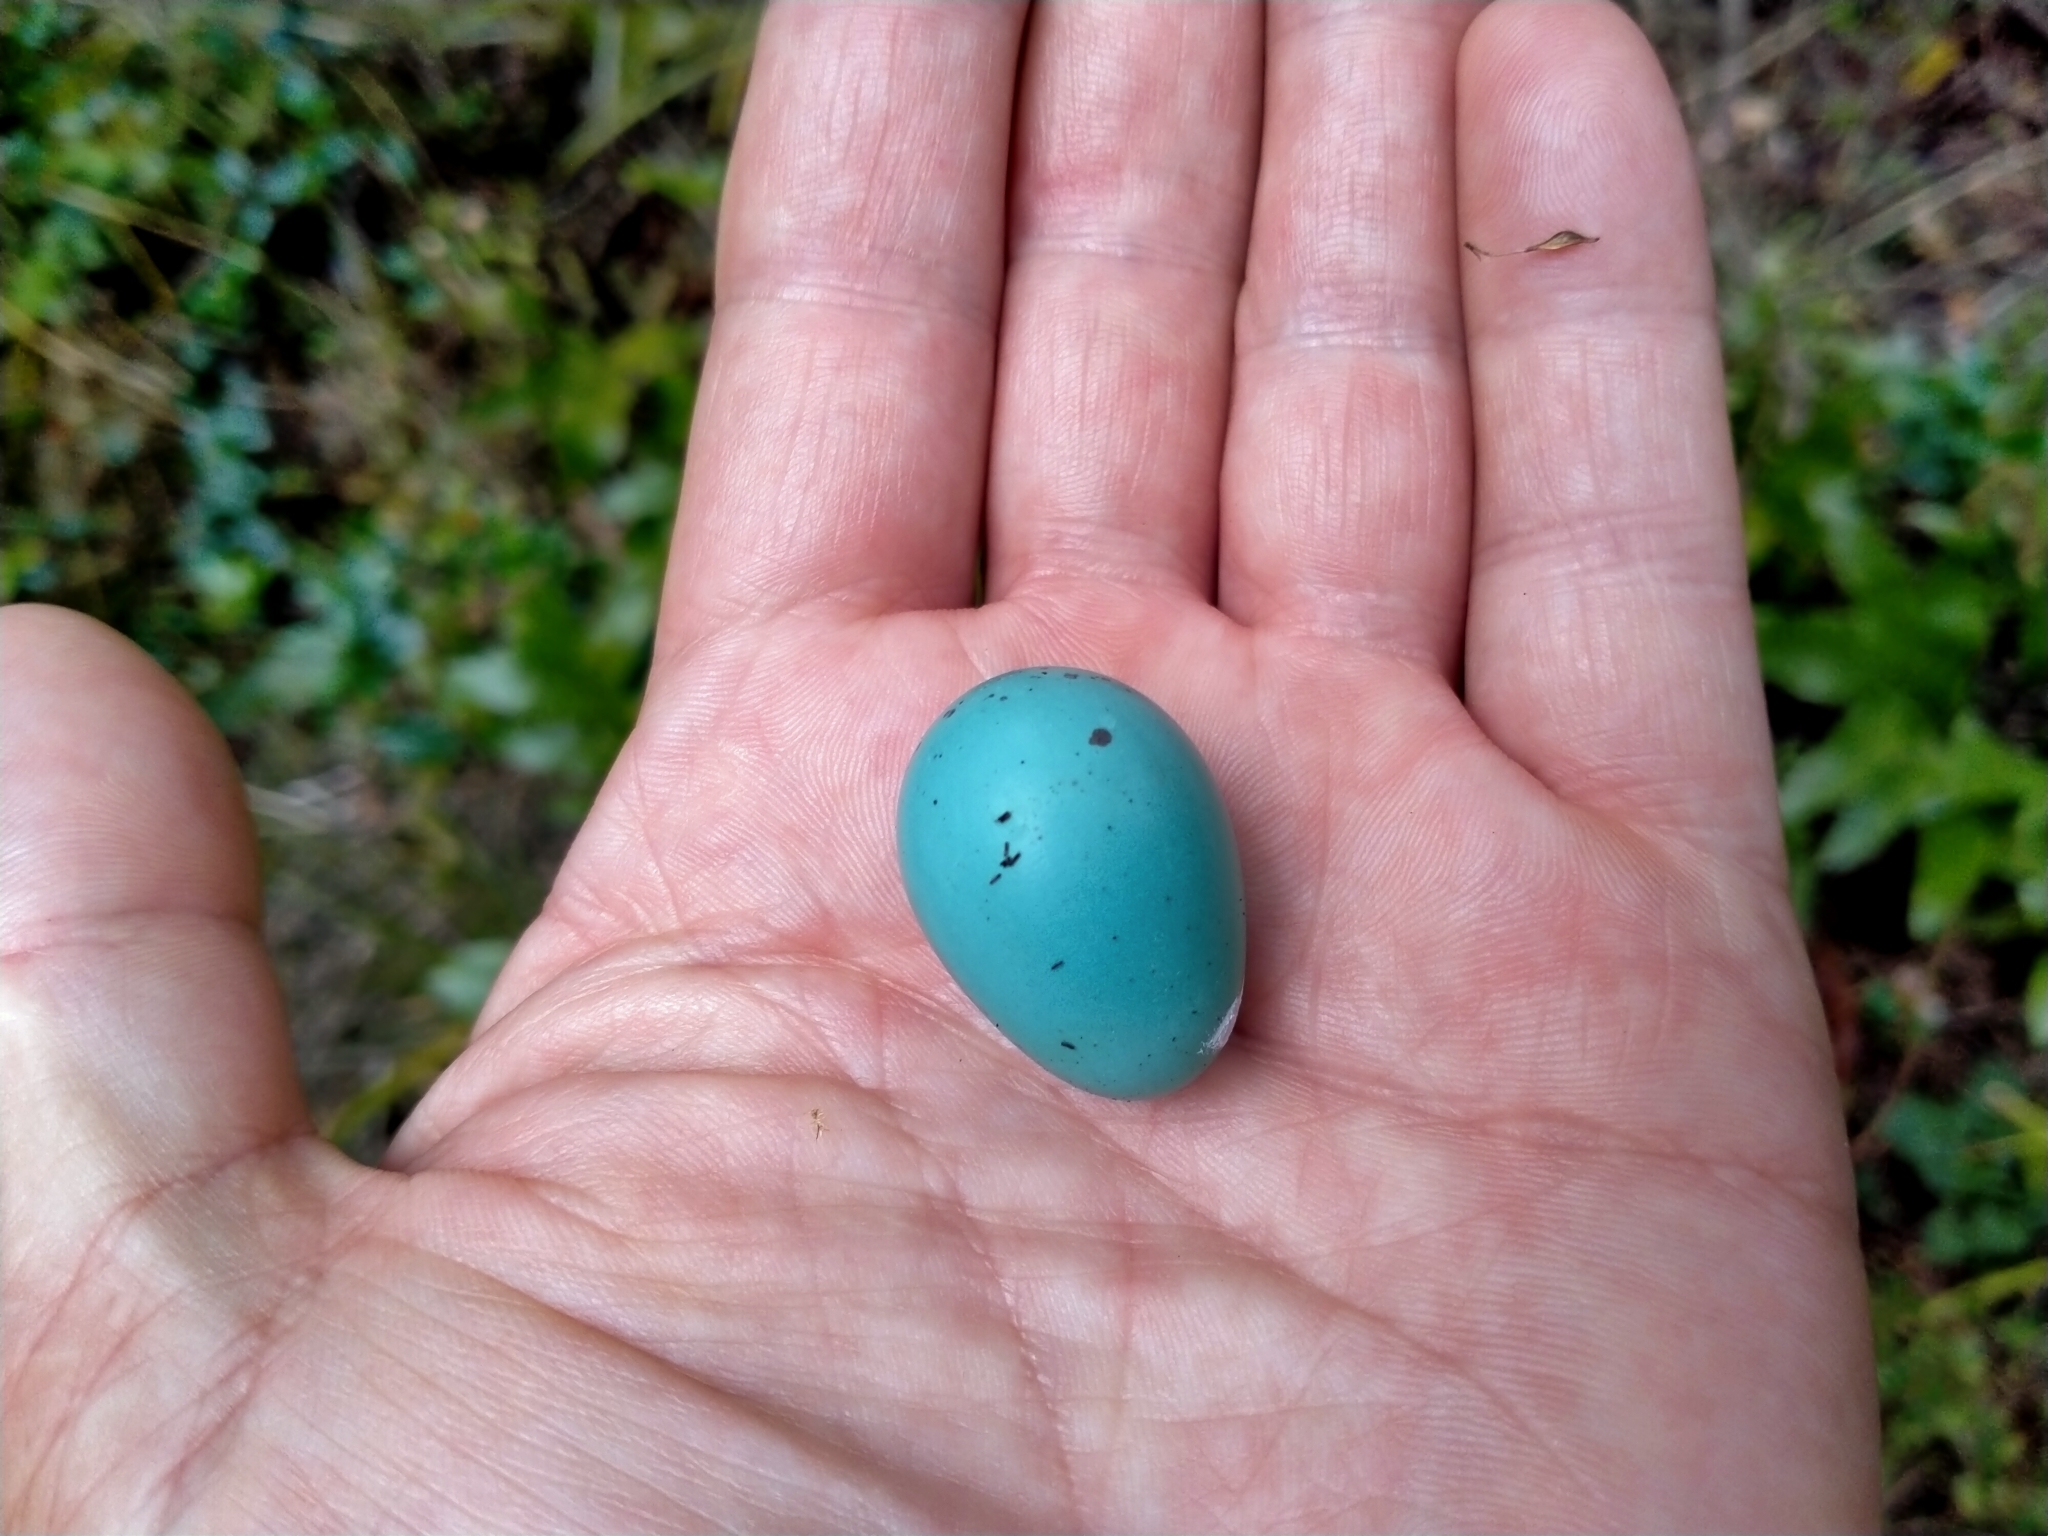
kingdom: Animalia
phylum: Chordata
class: Aves
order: Passeriformes
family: Turdidae
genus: Turdus
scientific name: Turdus philomelos
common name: Song thrush
